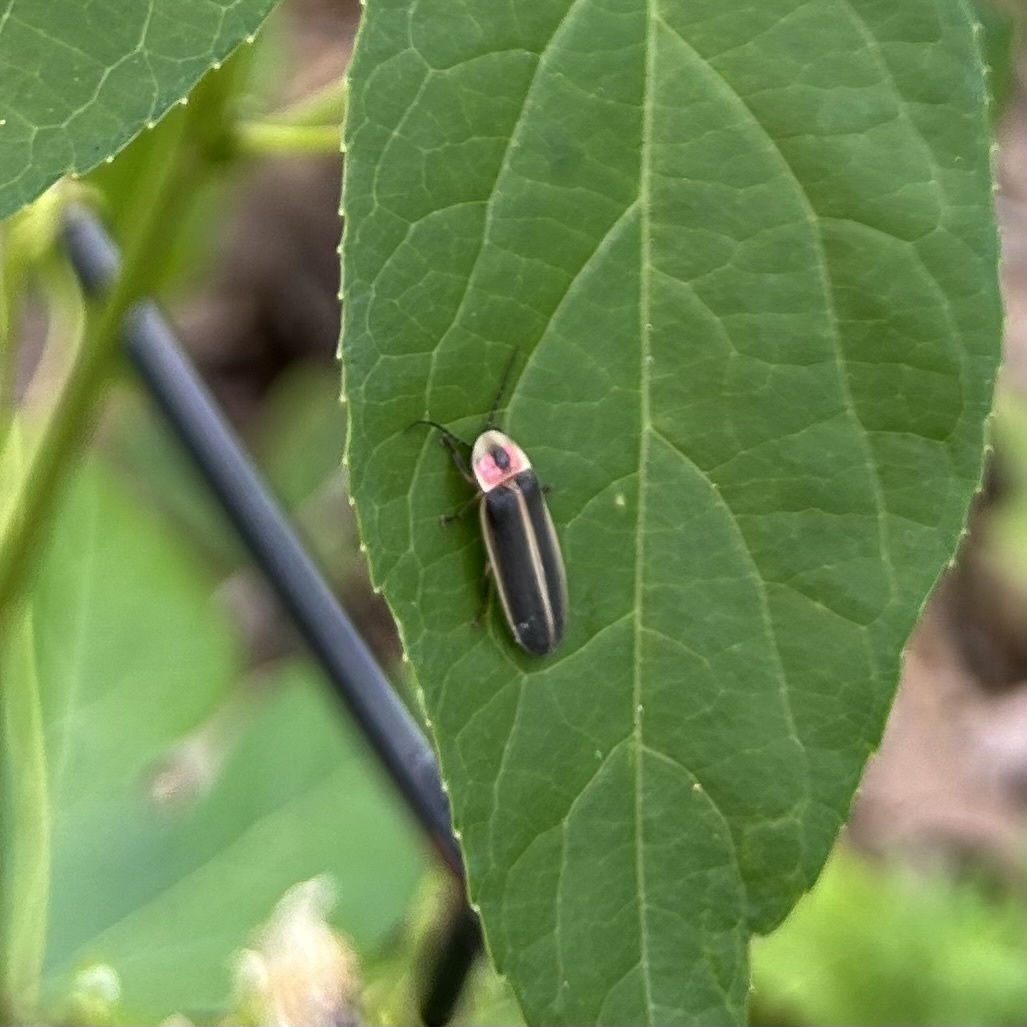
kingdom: Animalia
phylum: Arthropoda
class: Insecta
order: Coleoptera
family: Lampyridae
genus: Photinus
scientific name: Photinus pyralis
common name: Big dipper firefly
